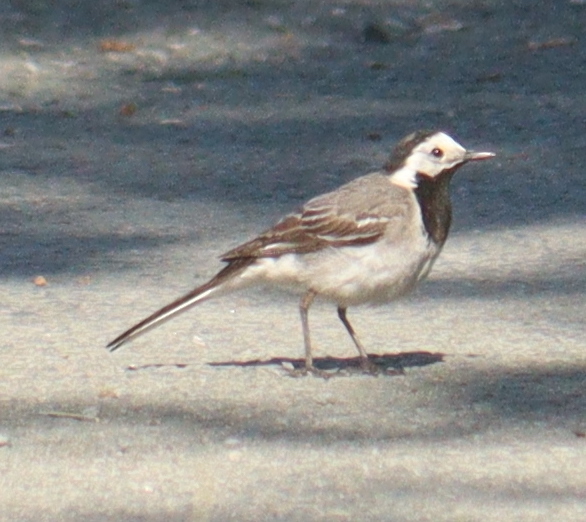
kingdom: Animalia
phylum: Chordata
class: Aves
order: Passeriformes
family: Motacillidae
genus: Motacilla
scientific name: Motacilla alba
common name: White wagtail
